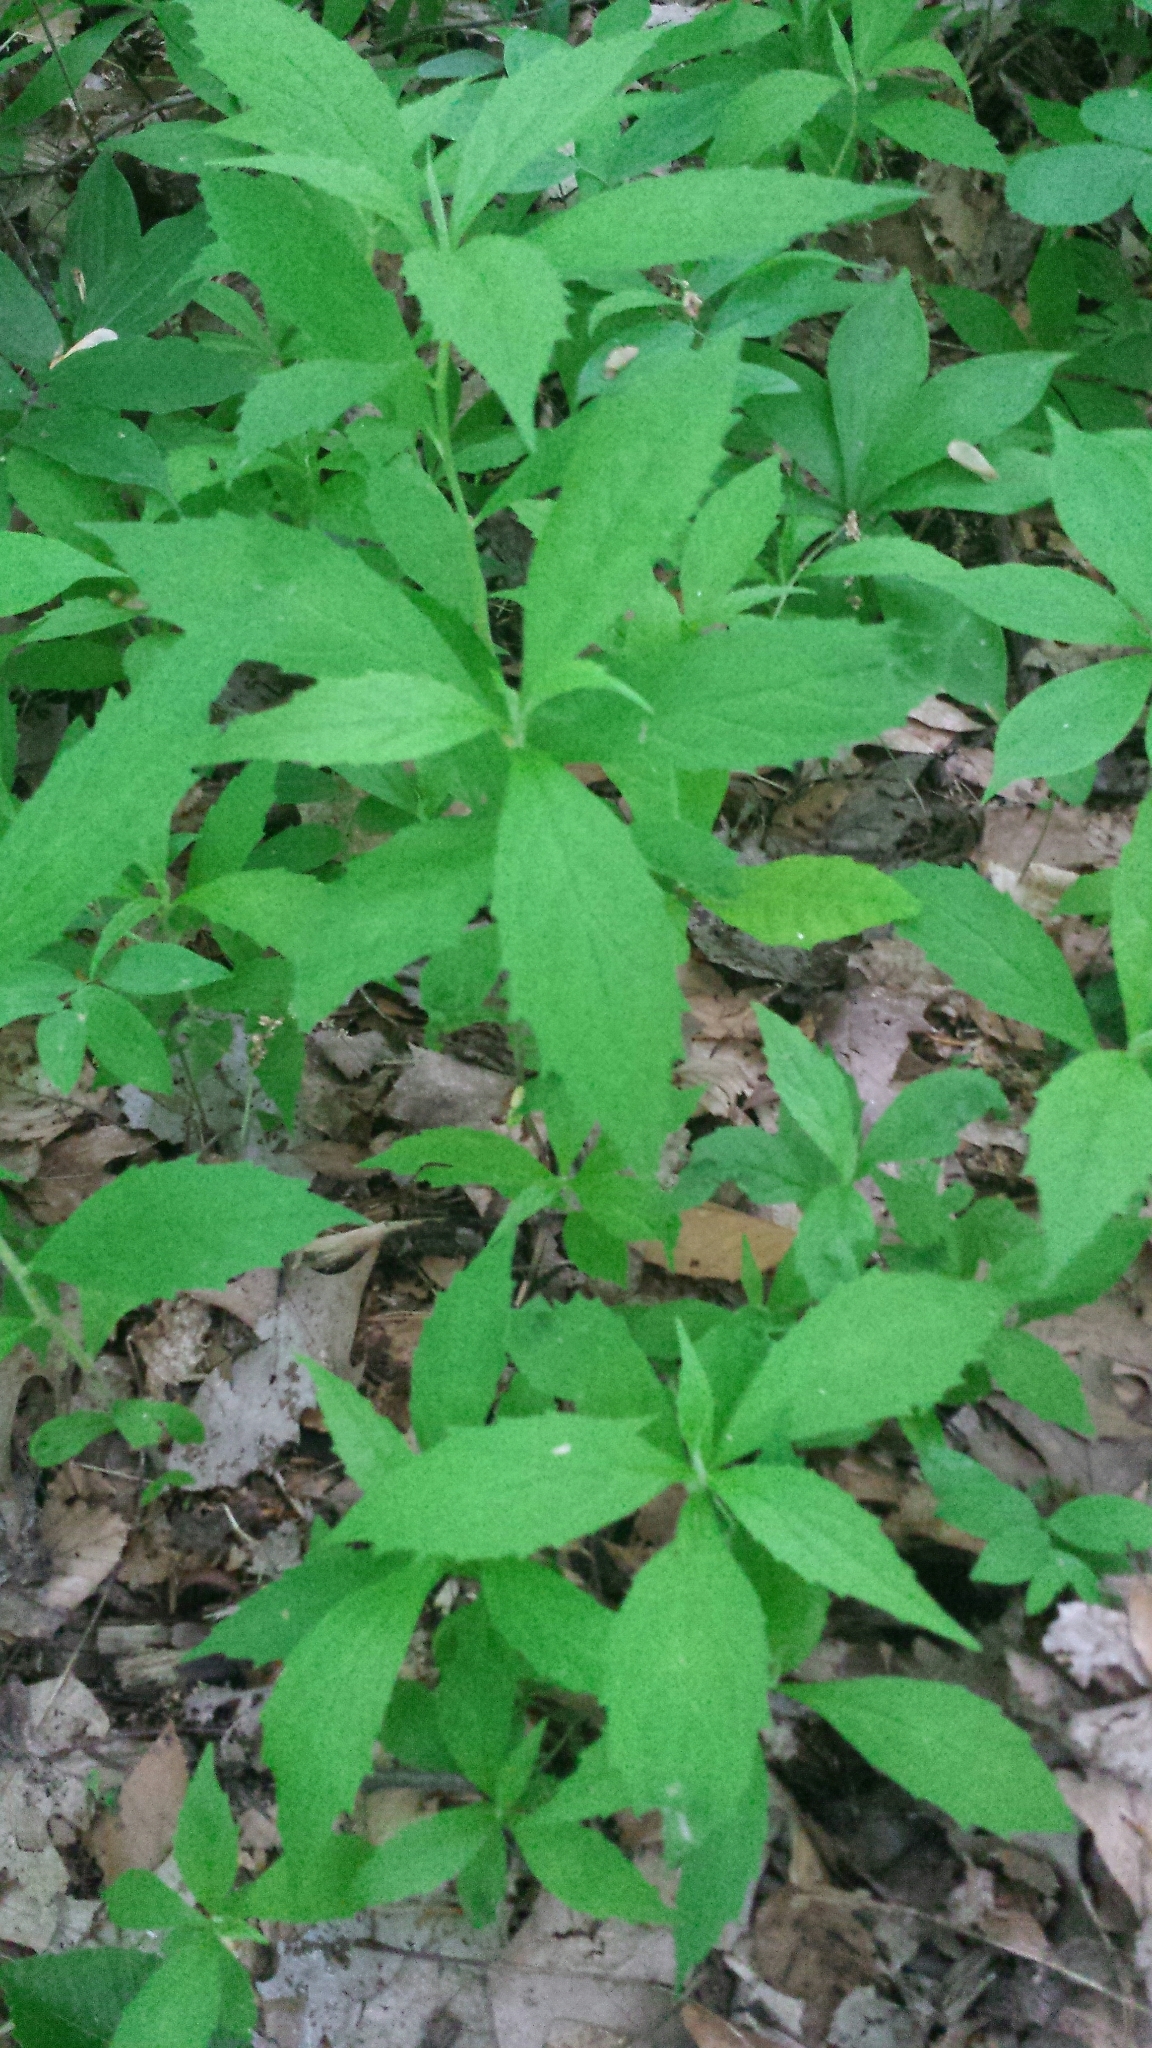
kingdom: Plantae
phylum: Tracheophyta
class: Magnoliopsida
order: Asterales
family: Asteraceae
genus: Oclemena
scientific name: Oclemena acuminata
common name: Mountain aster
